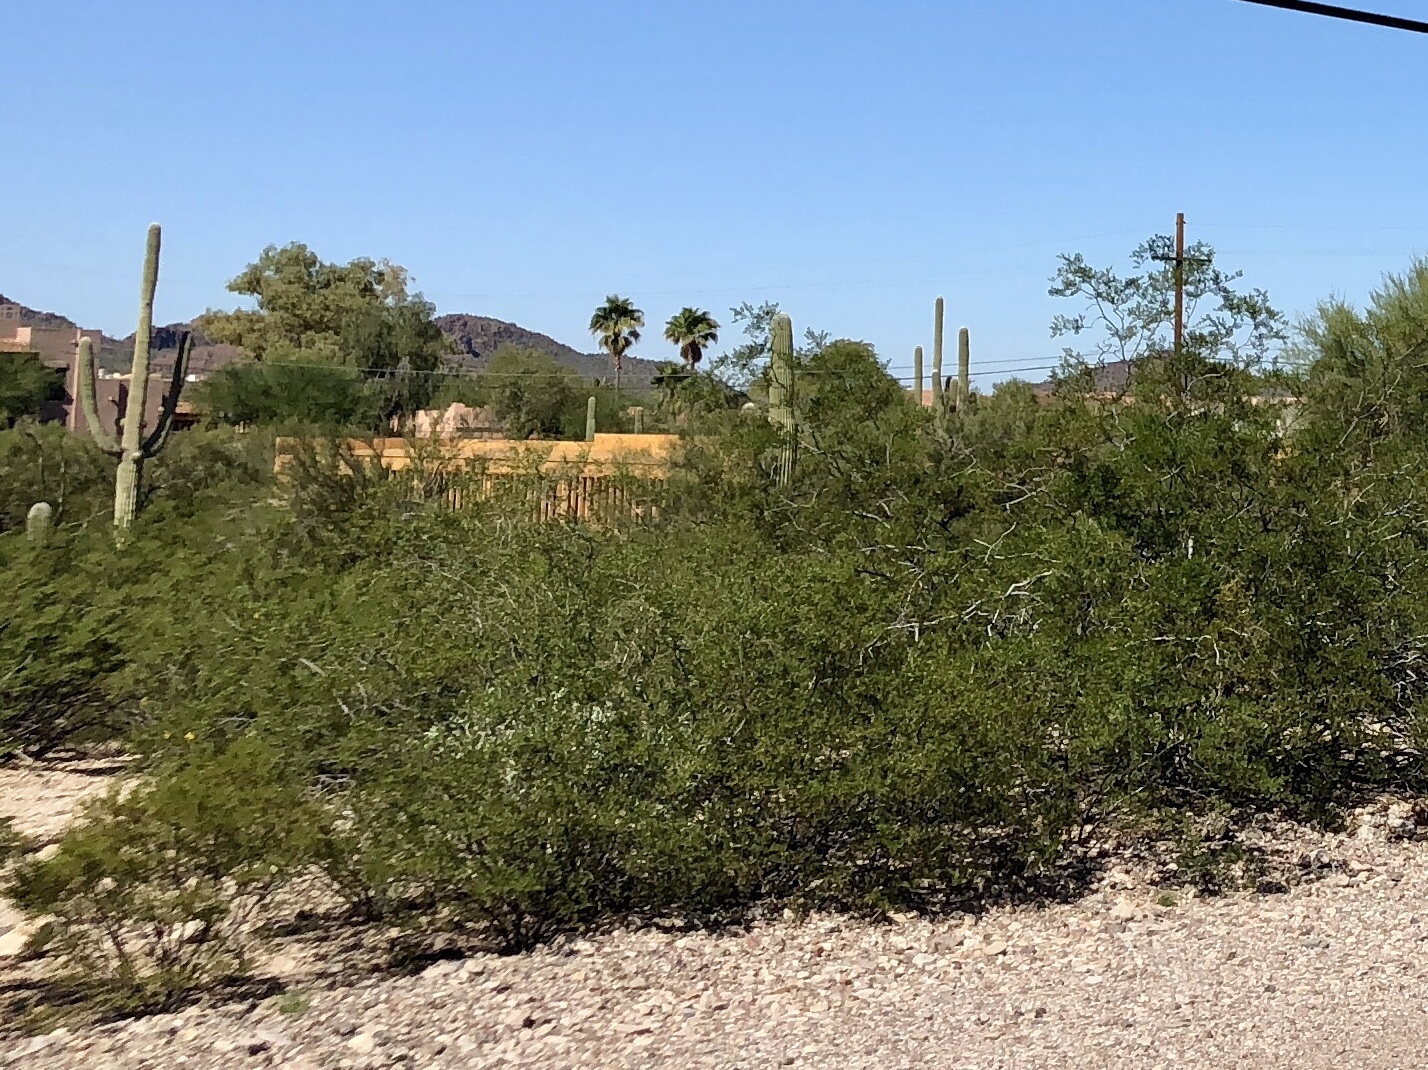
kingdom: Plantae
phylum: Tracheophyta
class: Magnoliopsida
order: Zygophyllales
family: Zygophyllaceae
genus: Larrea
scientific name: Larrea tridentata
